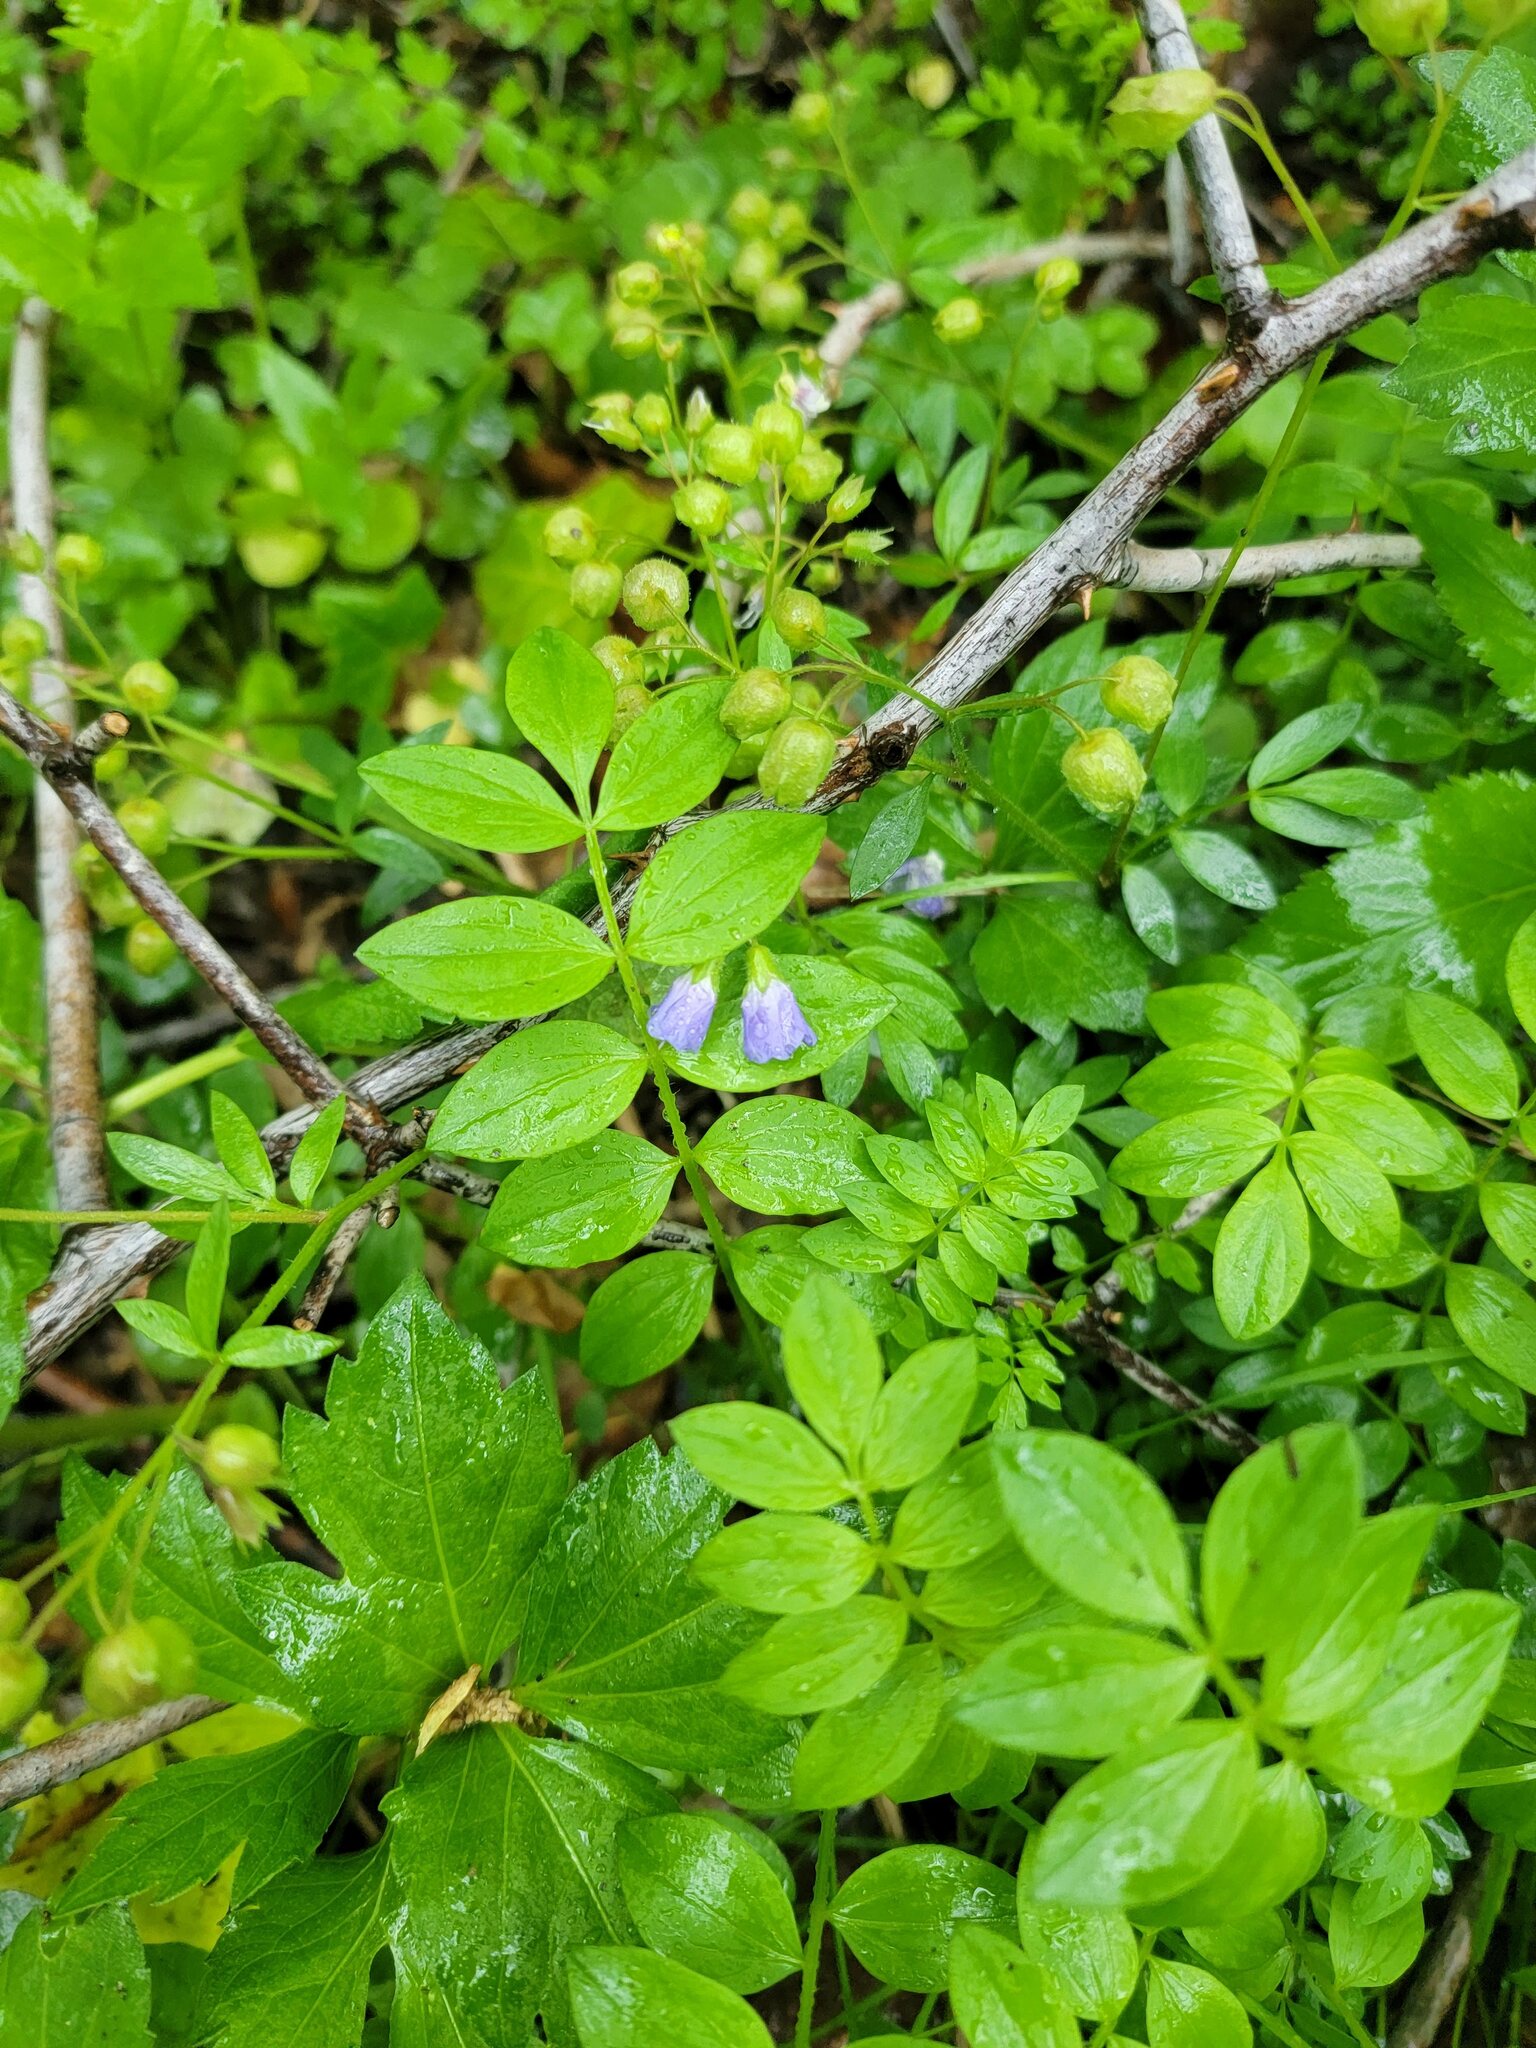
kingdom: Plantae
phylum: Tracheophyta
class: Magnoliopsida
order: Ericales
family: Polemoniaceae
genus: Polemonium
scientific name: Polemonium reptans
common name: Creeping jacob's-ladder
